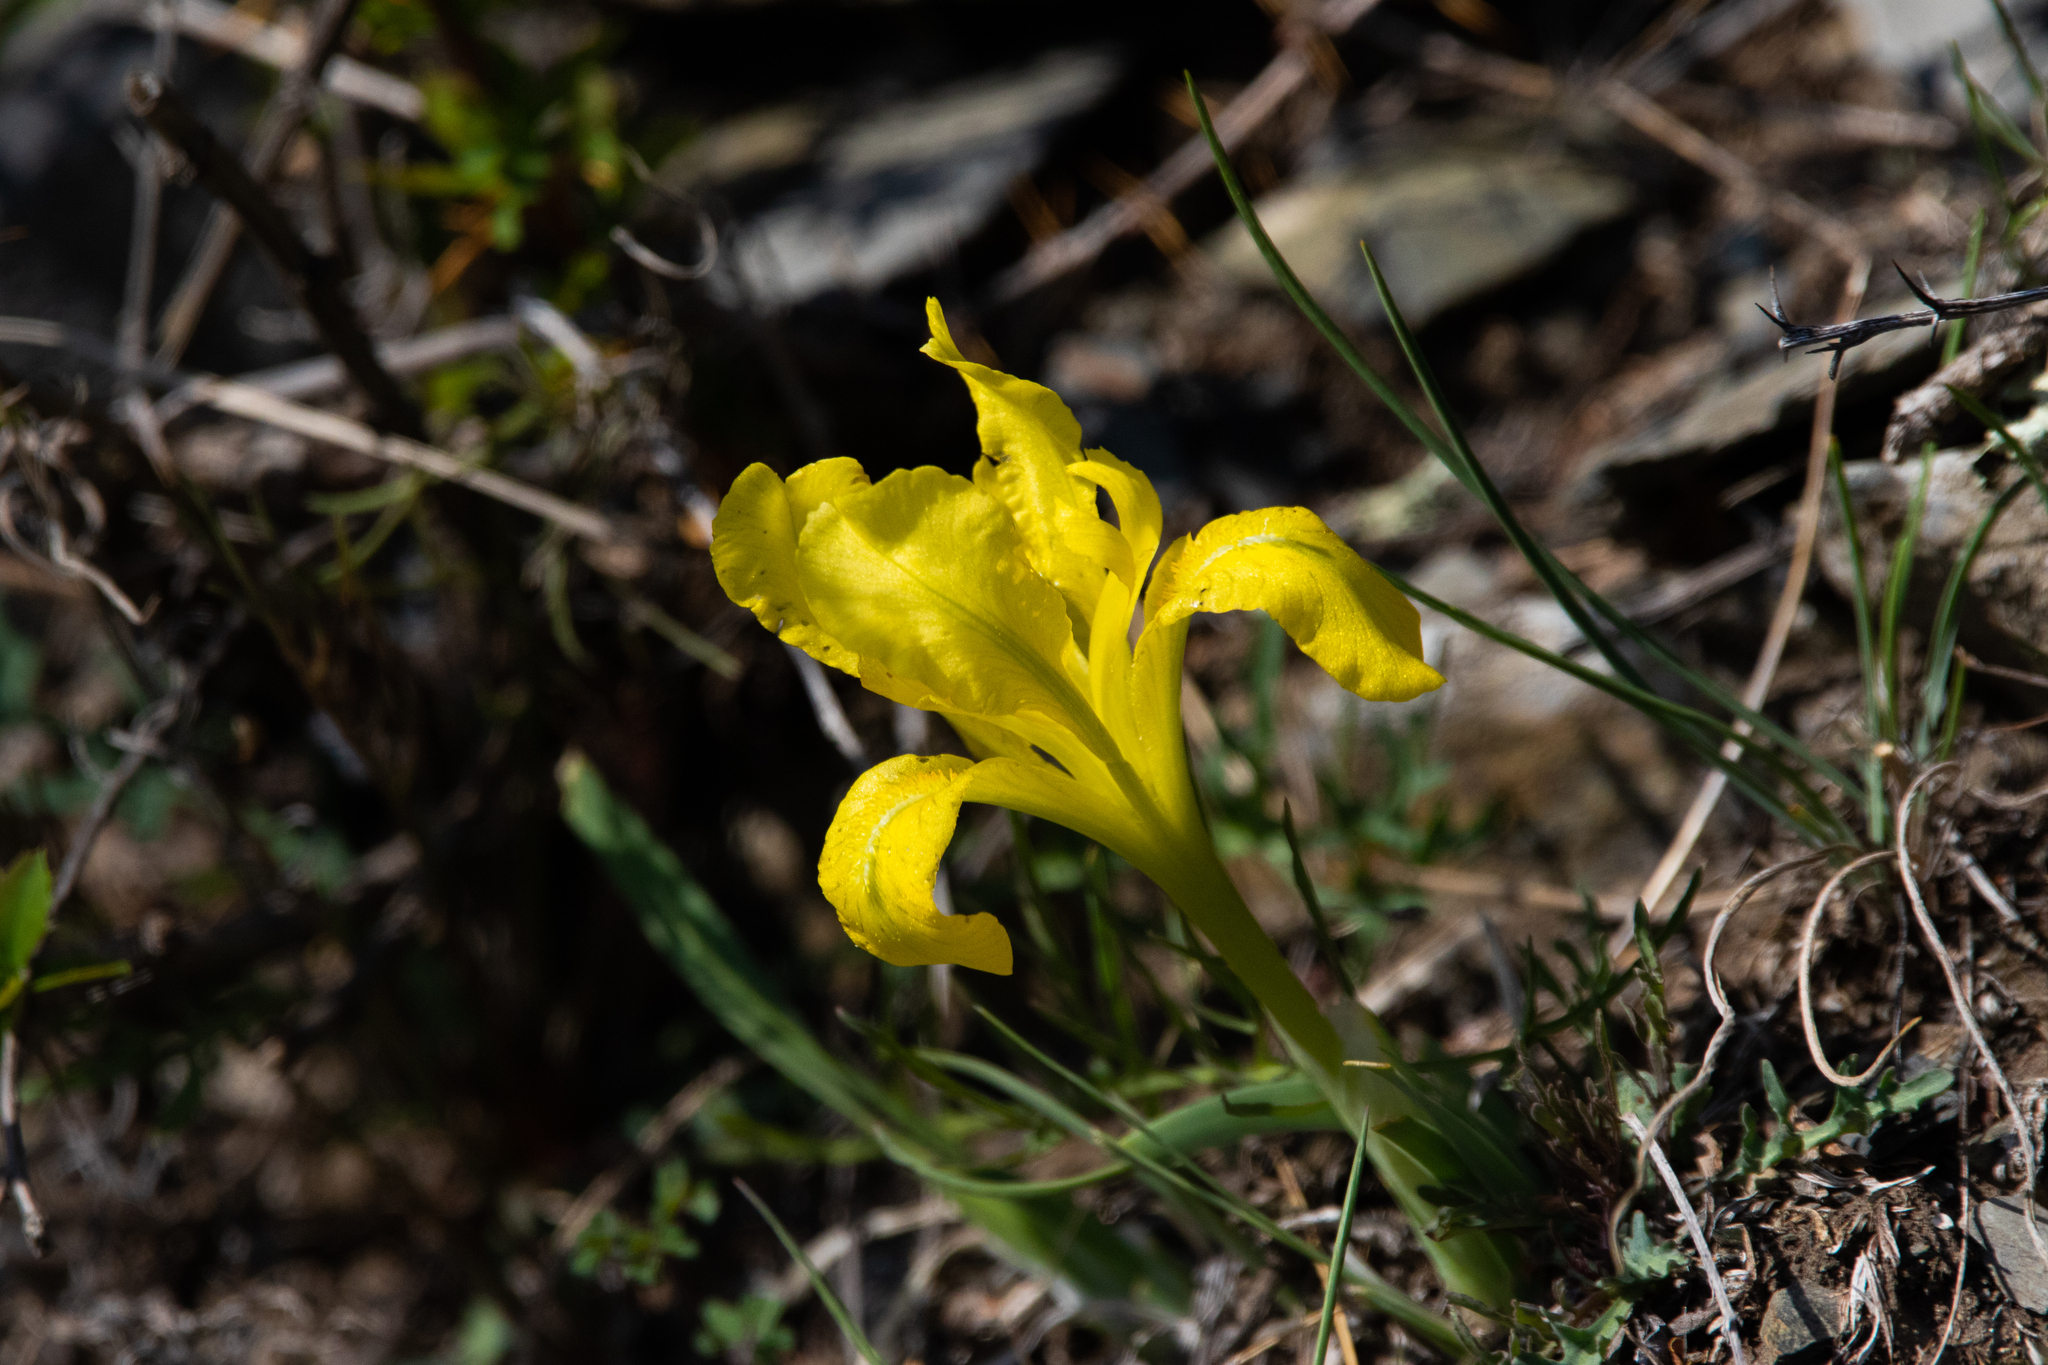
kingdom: Plantae
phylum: Tracheophyta
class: Liliopsida
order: Asparagales
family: Iridaceae
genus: Iris
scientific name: Iris humilis
